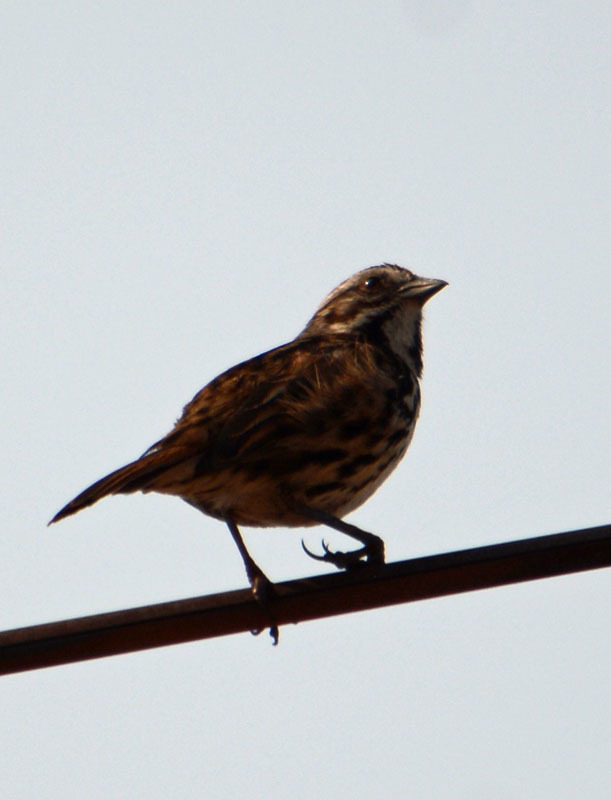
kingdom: Animalia
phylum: Chordata
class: Aves
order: Passeriformes
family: Passerellidae
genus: Melospiza
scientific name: Melospiza melodia
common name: Song sparrow
